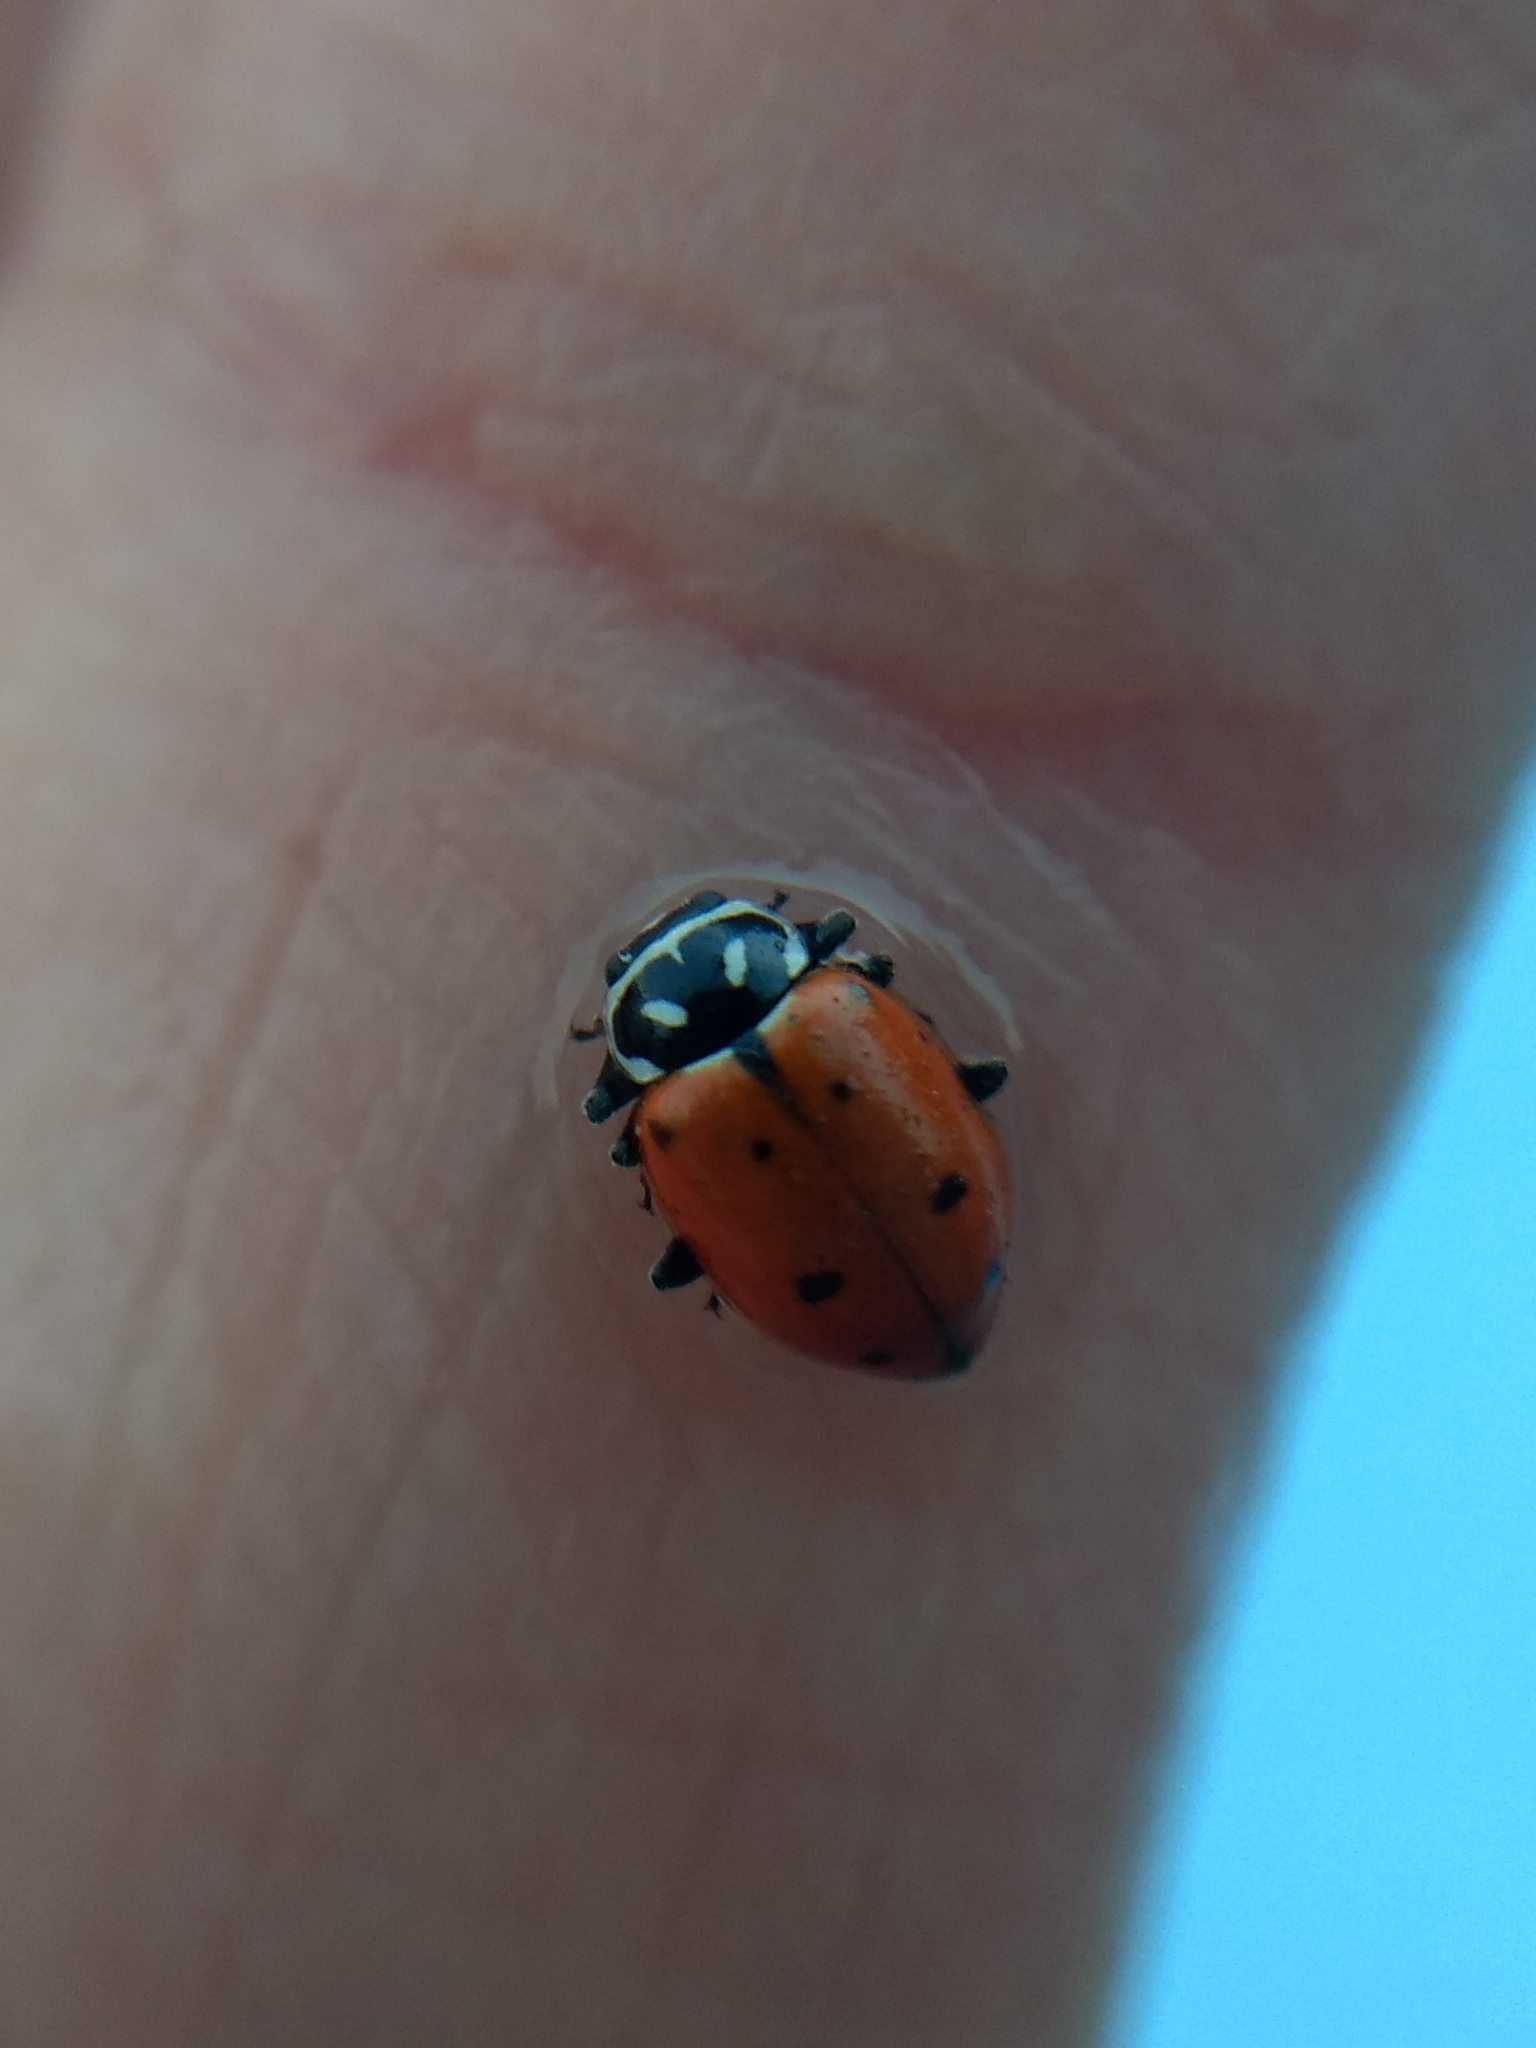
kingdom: Animalia
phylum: Arthropoda
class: Insecta
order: Coleoptera
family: Coccinellidae
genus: Hippodamia
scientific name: Hippodamia convergens
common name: Convergent lady beetle
